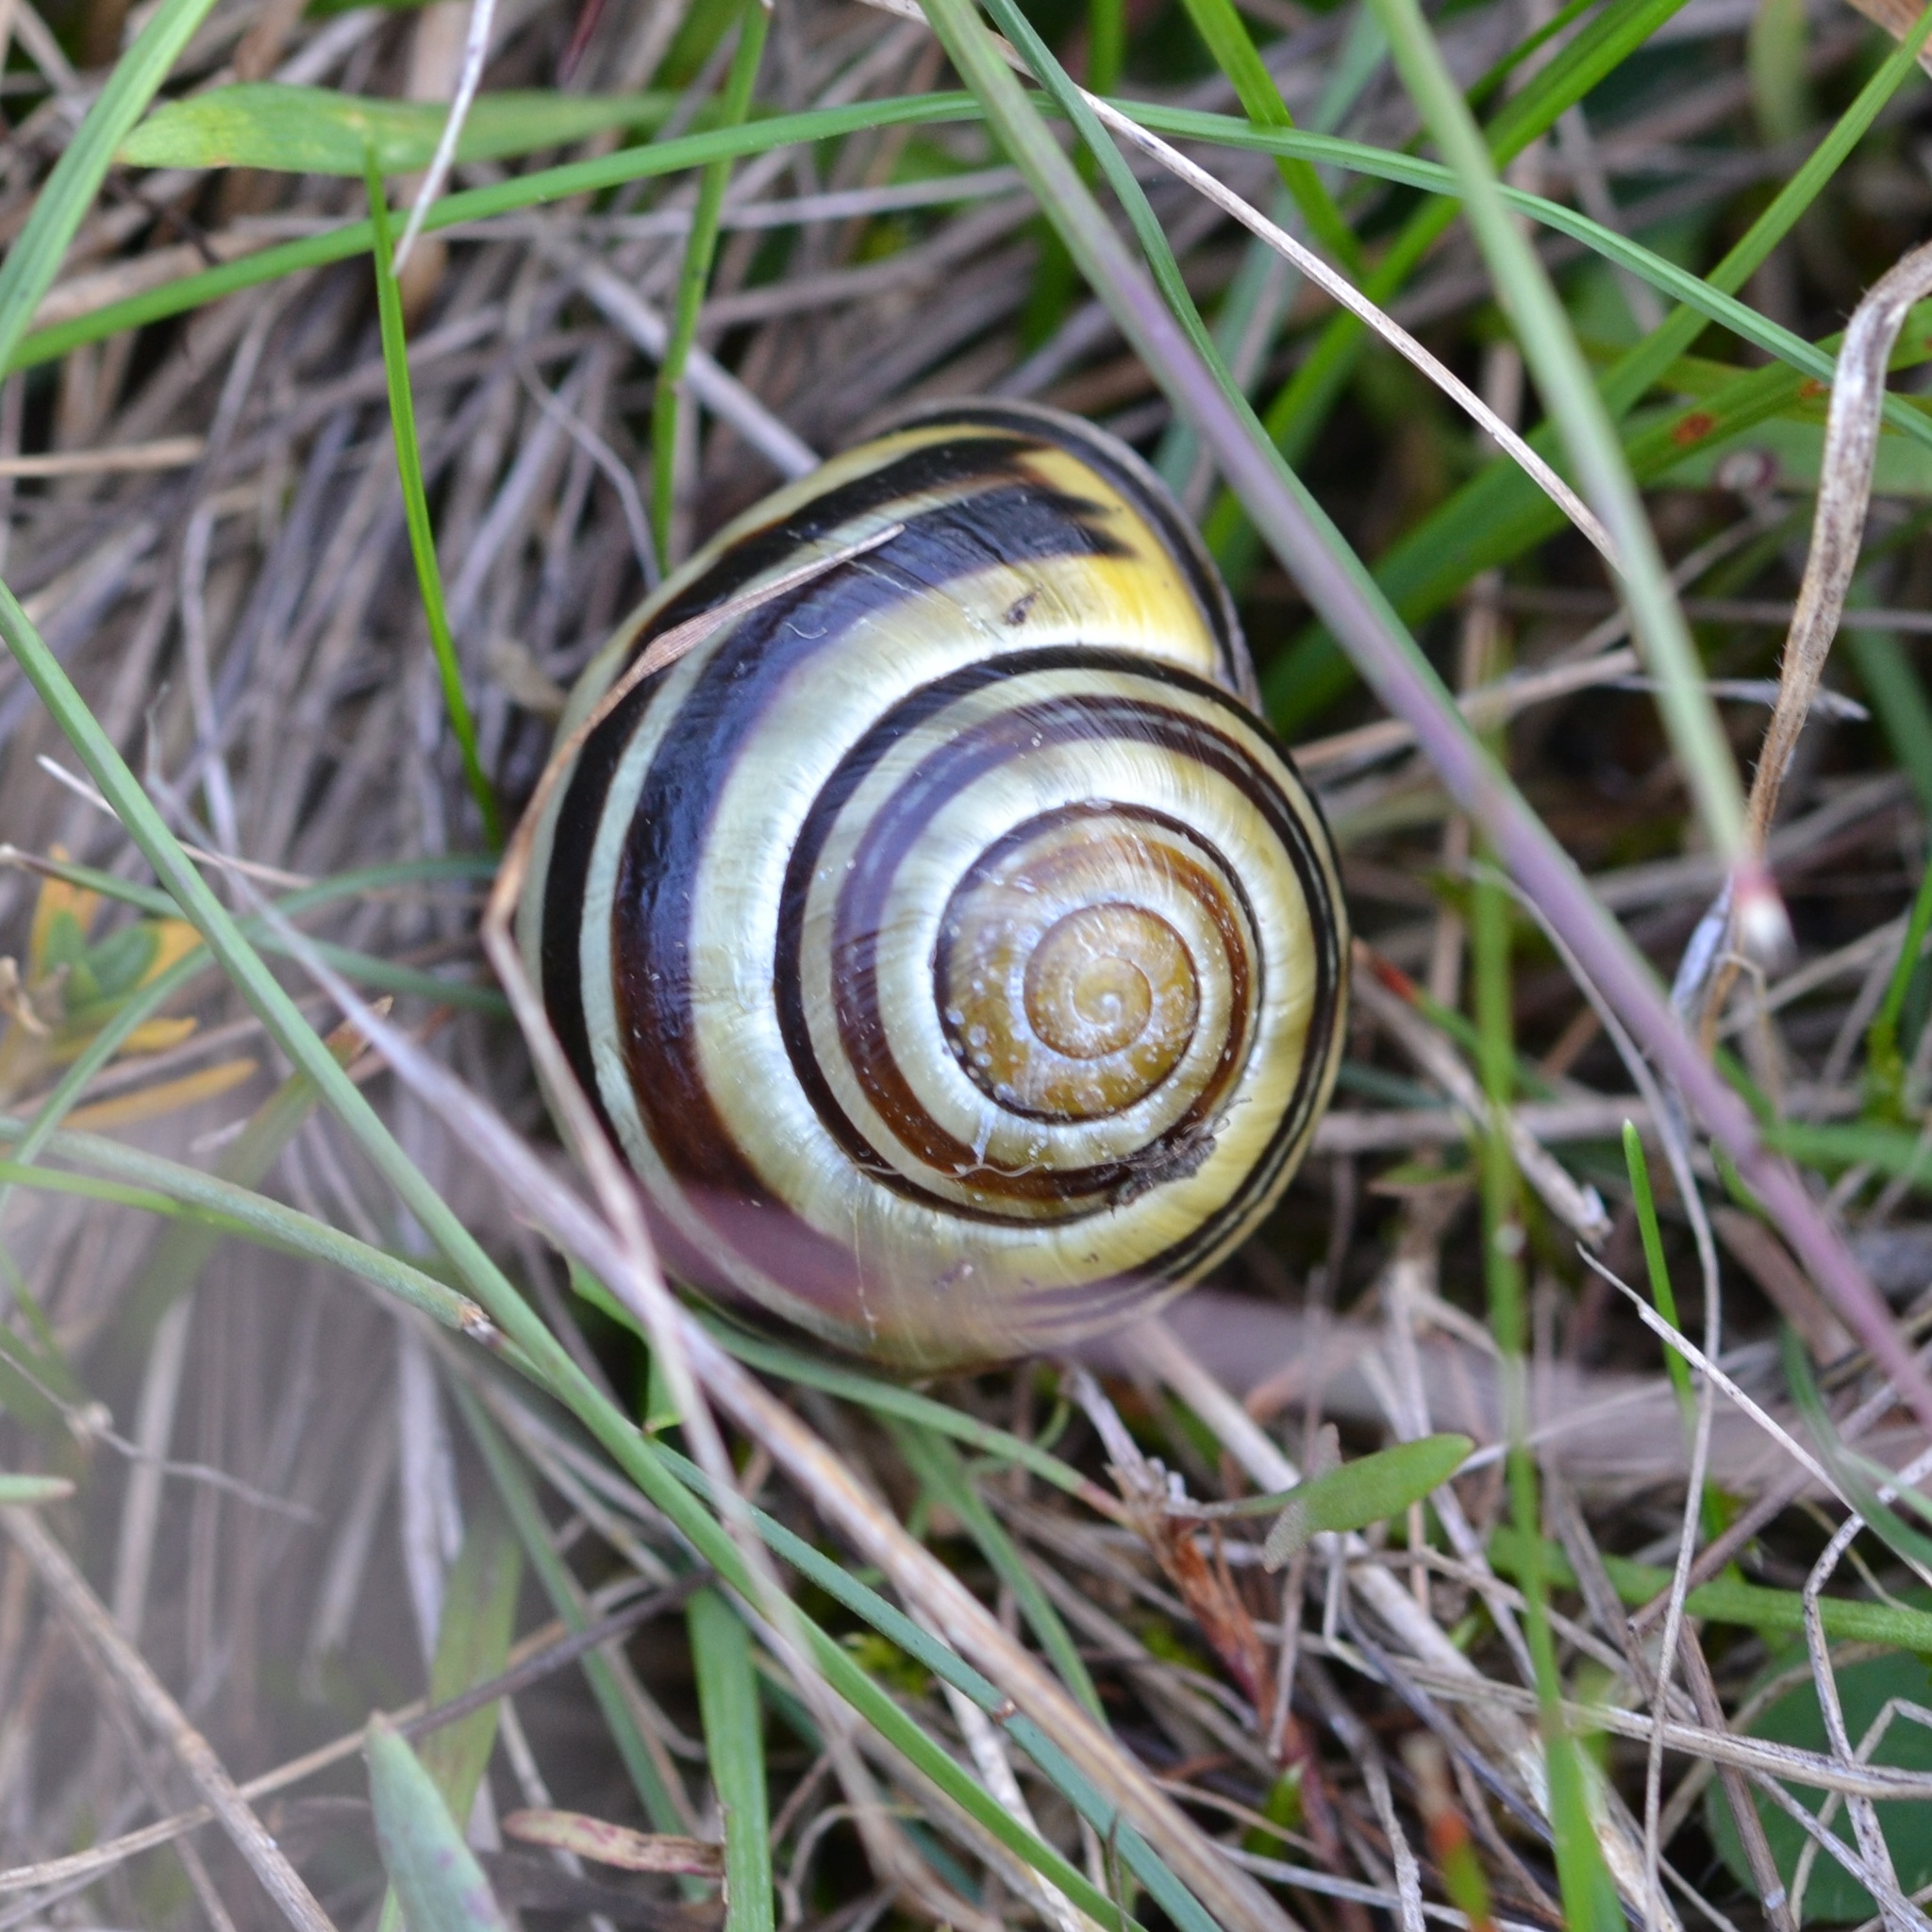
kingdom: Animalia
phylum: Mollusca
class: Gastropoda
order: Stylommatophora
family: Helicidae
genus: Cepaea
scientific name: Cepaea nemoralis
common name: Grovesnail
